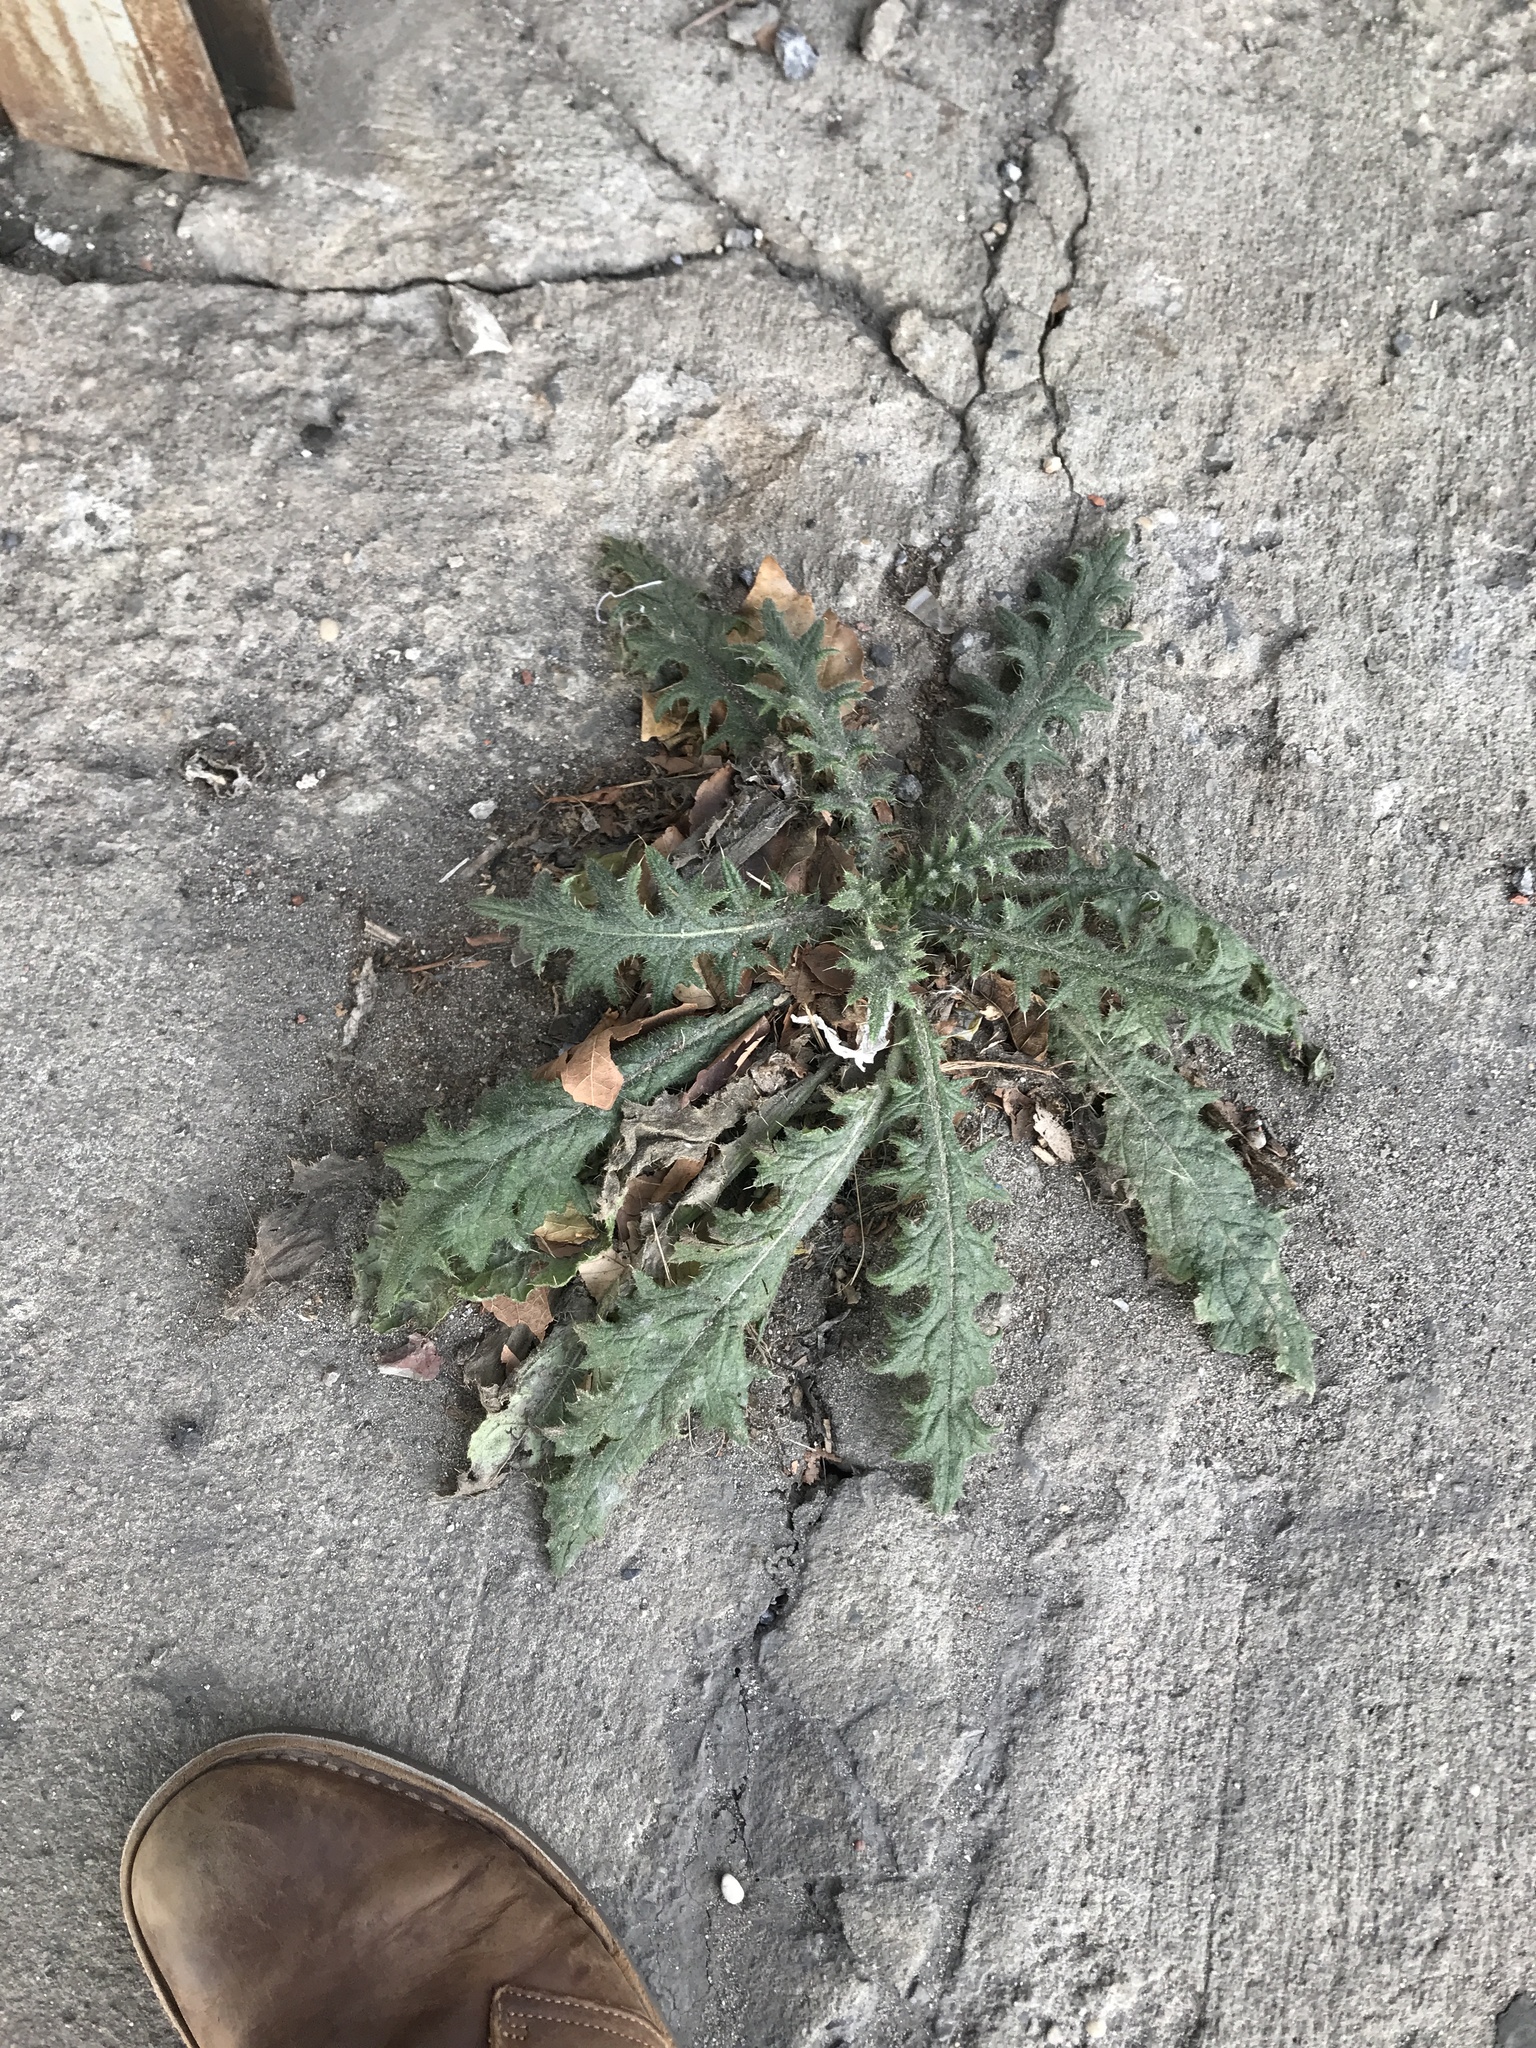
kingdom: Plantae
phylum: Tracheophyta
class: Magnoliopsida
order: Asterales
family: Asteraceae
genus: Cirsium
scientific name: Cirsium vulgare
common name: Bull thistle
